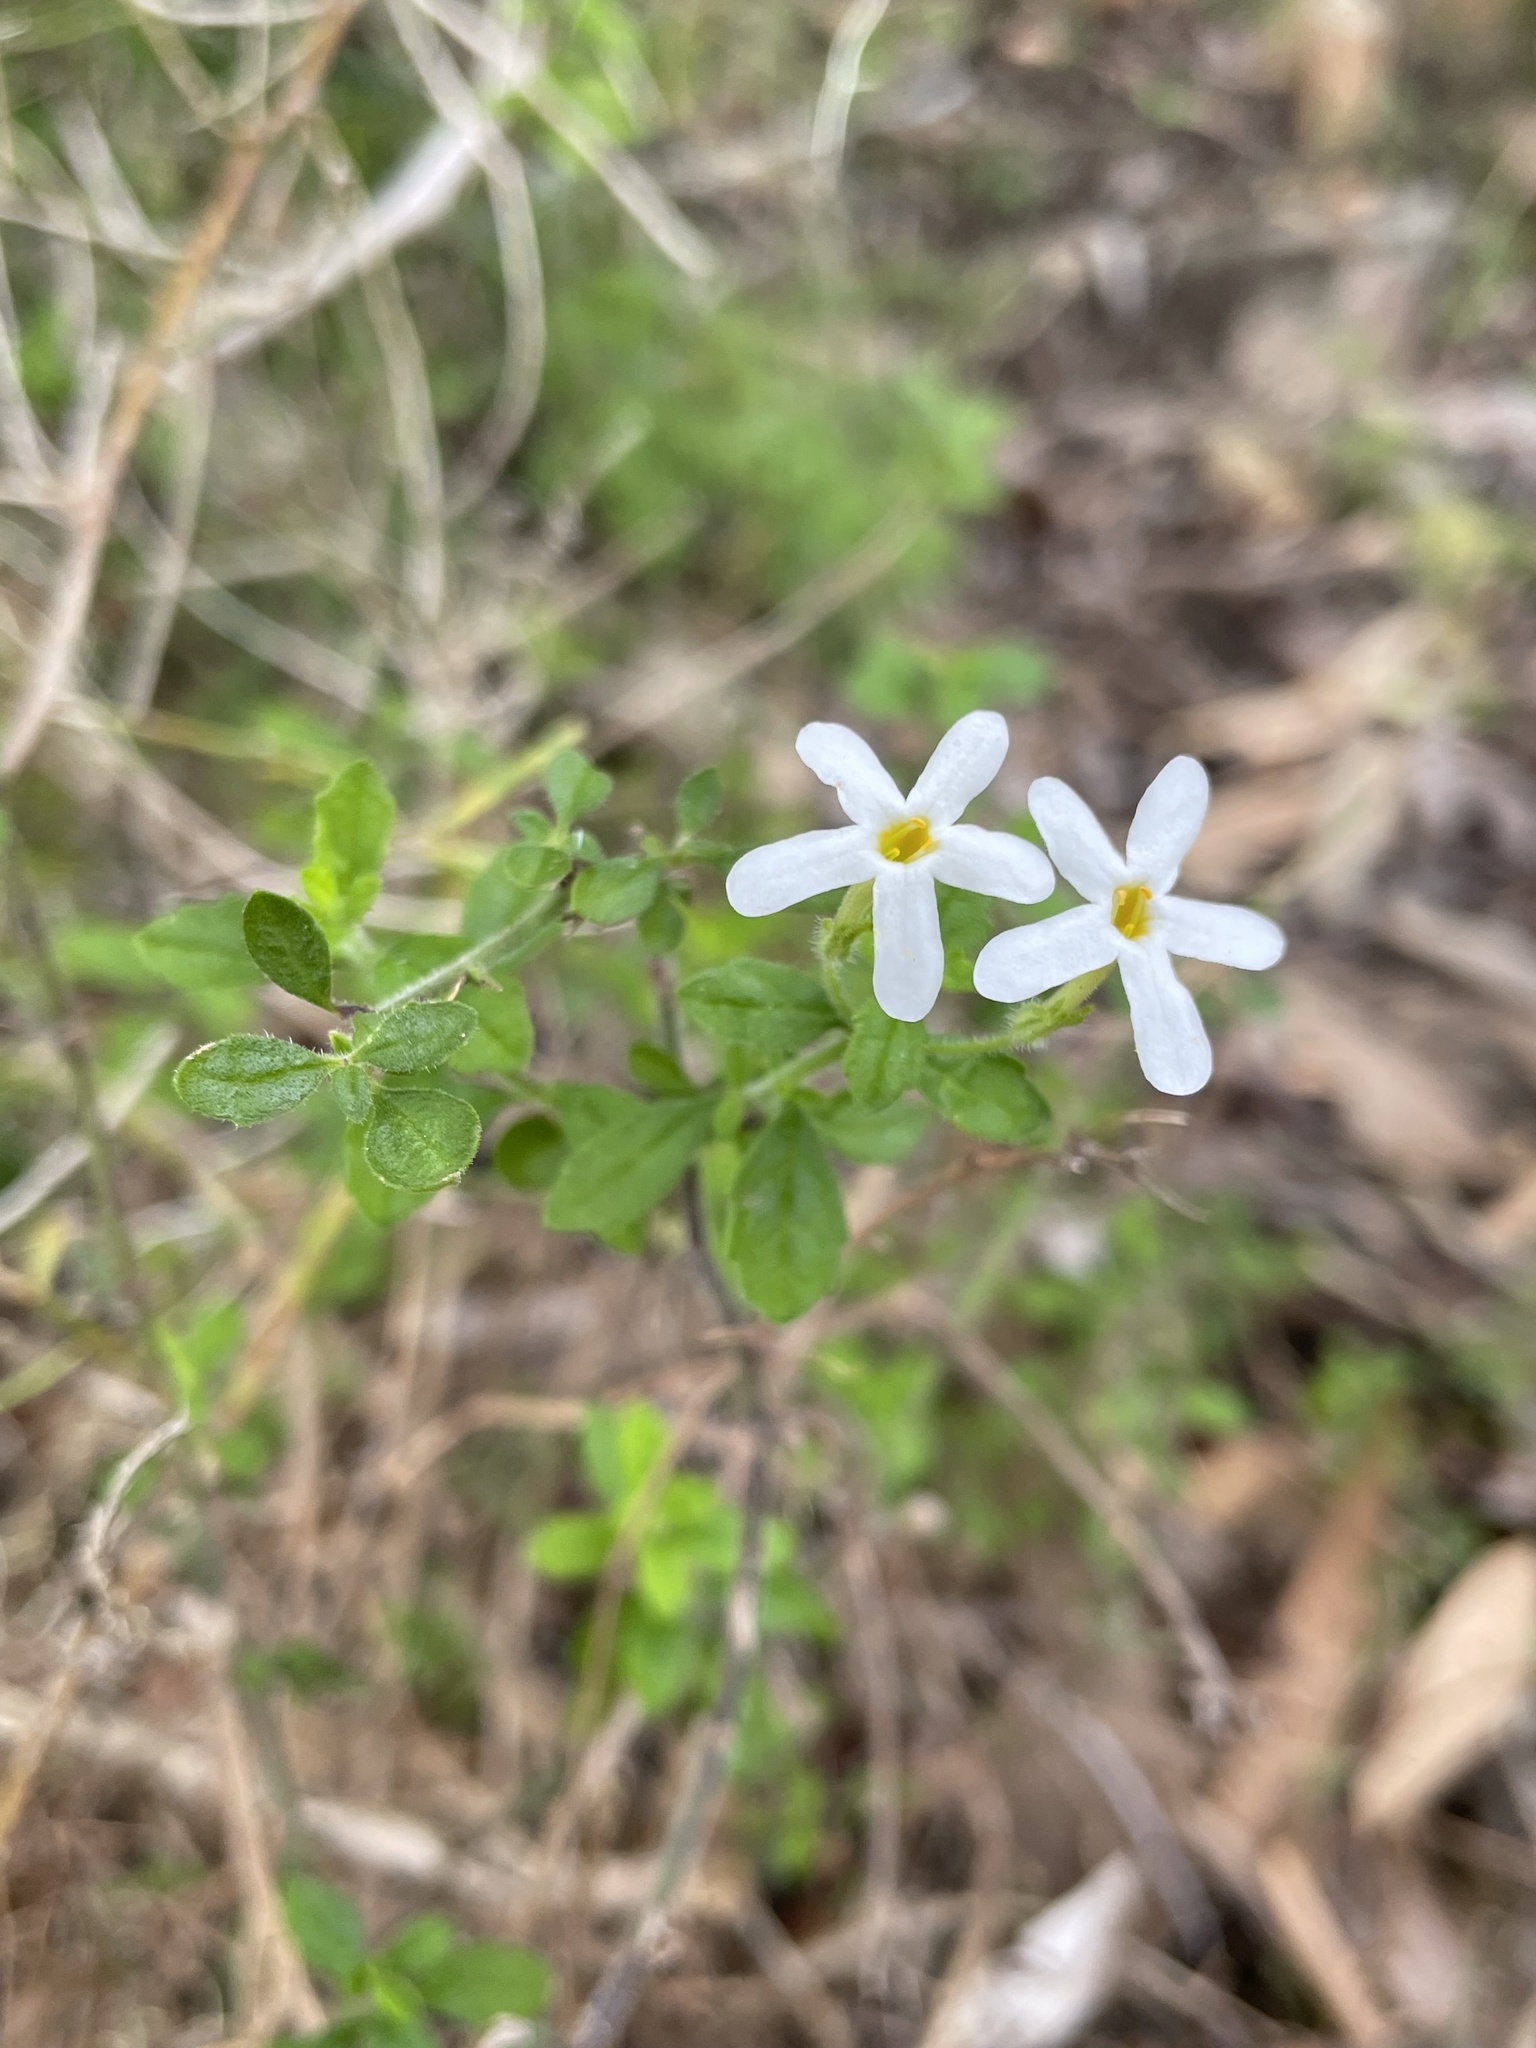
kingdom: Plantae
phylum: Tracheophyta
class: Magnoliopsida
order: Lamiales
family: Scrophulariaceae
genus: Chaenostoma
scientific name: Chaenostoma hispidum
